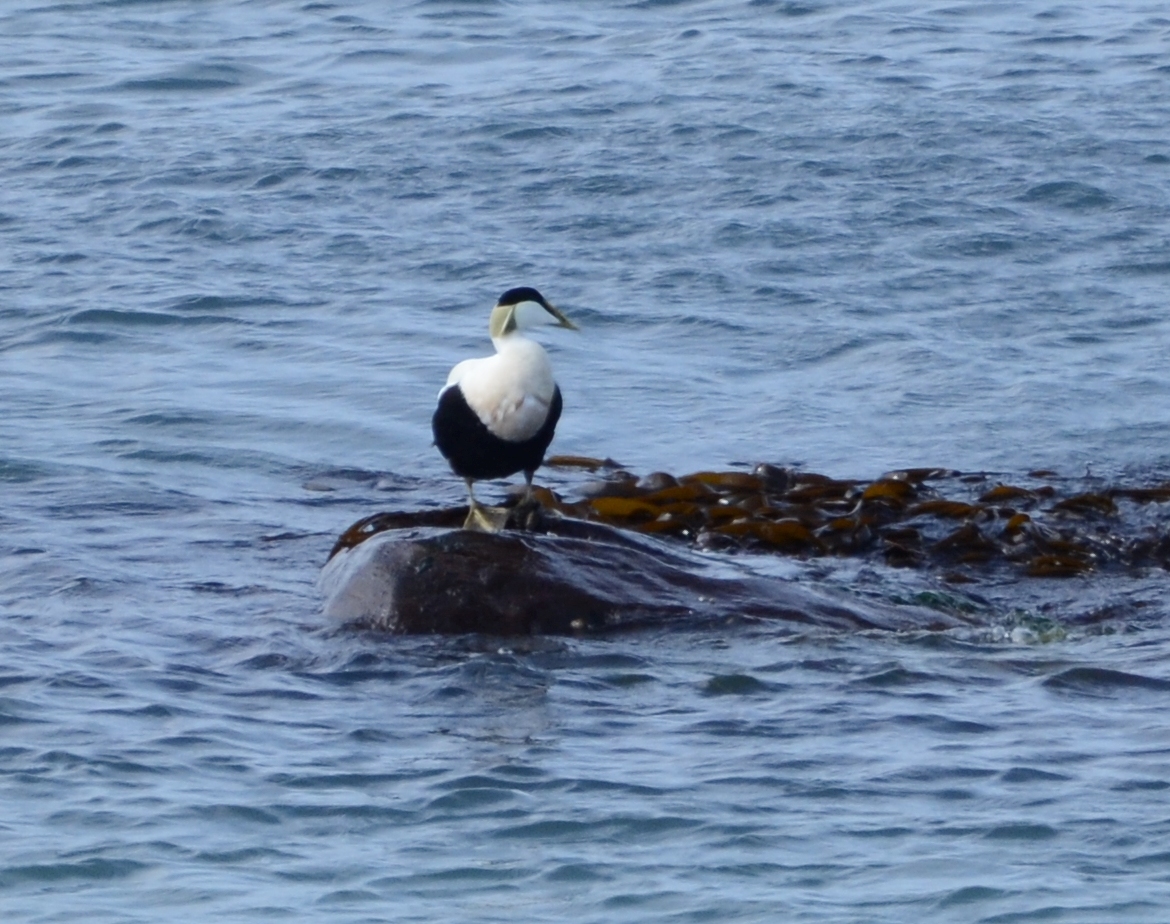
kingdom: Animalia
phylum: Chordata
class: Aves
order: Anseriformes
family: Anatidae
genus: Somateria
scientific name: Somateria mollissima
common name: Common eider
